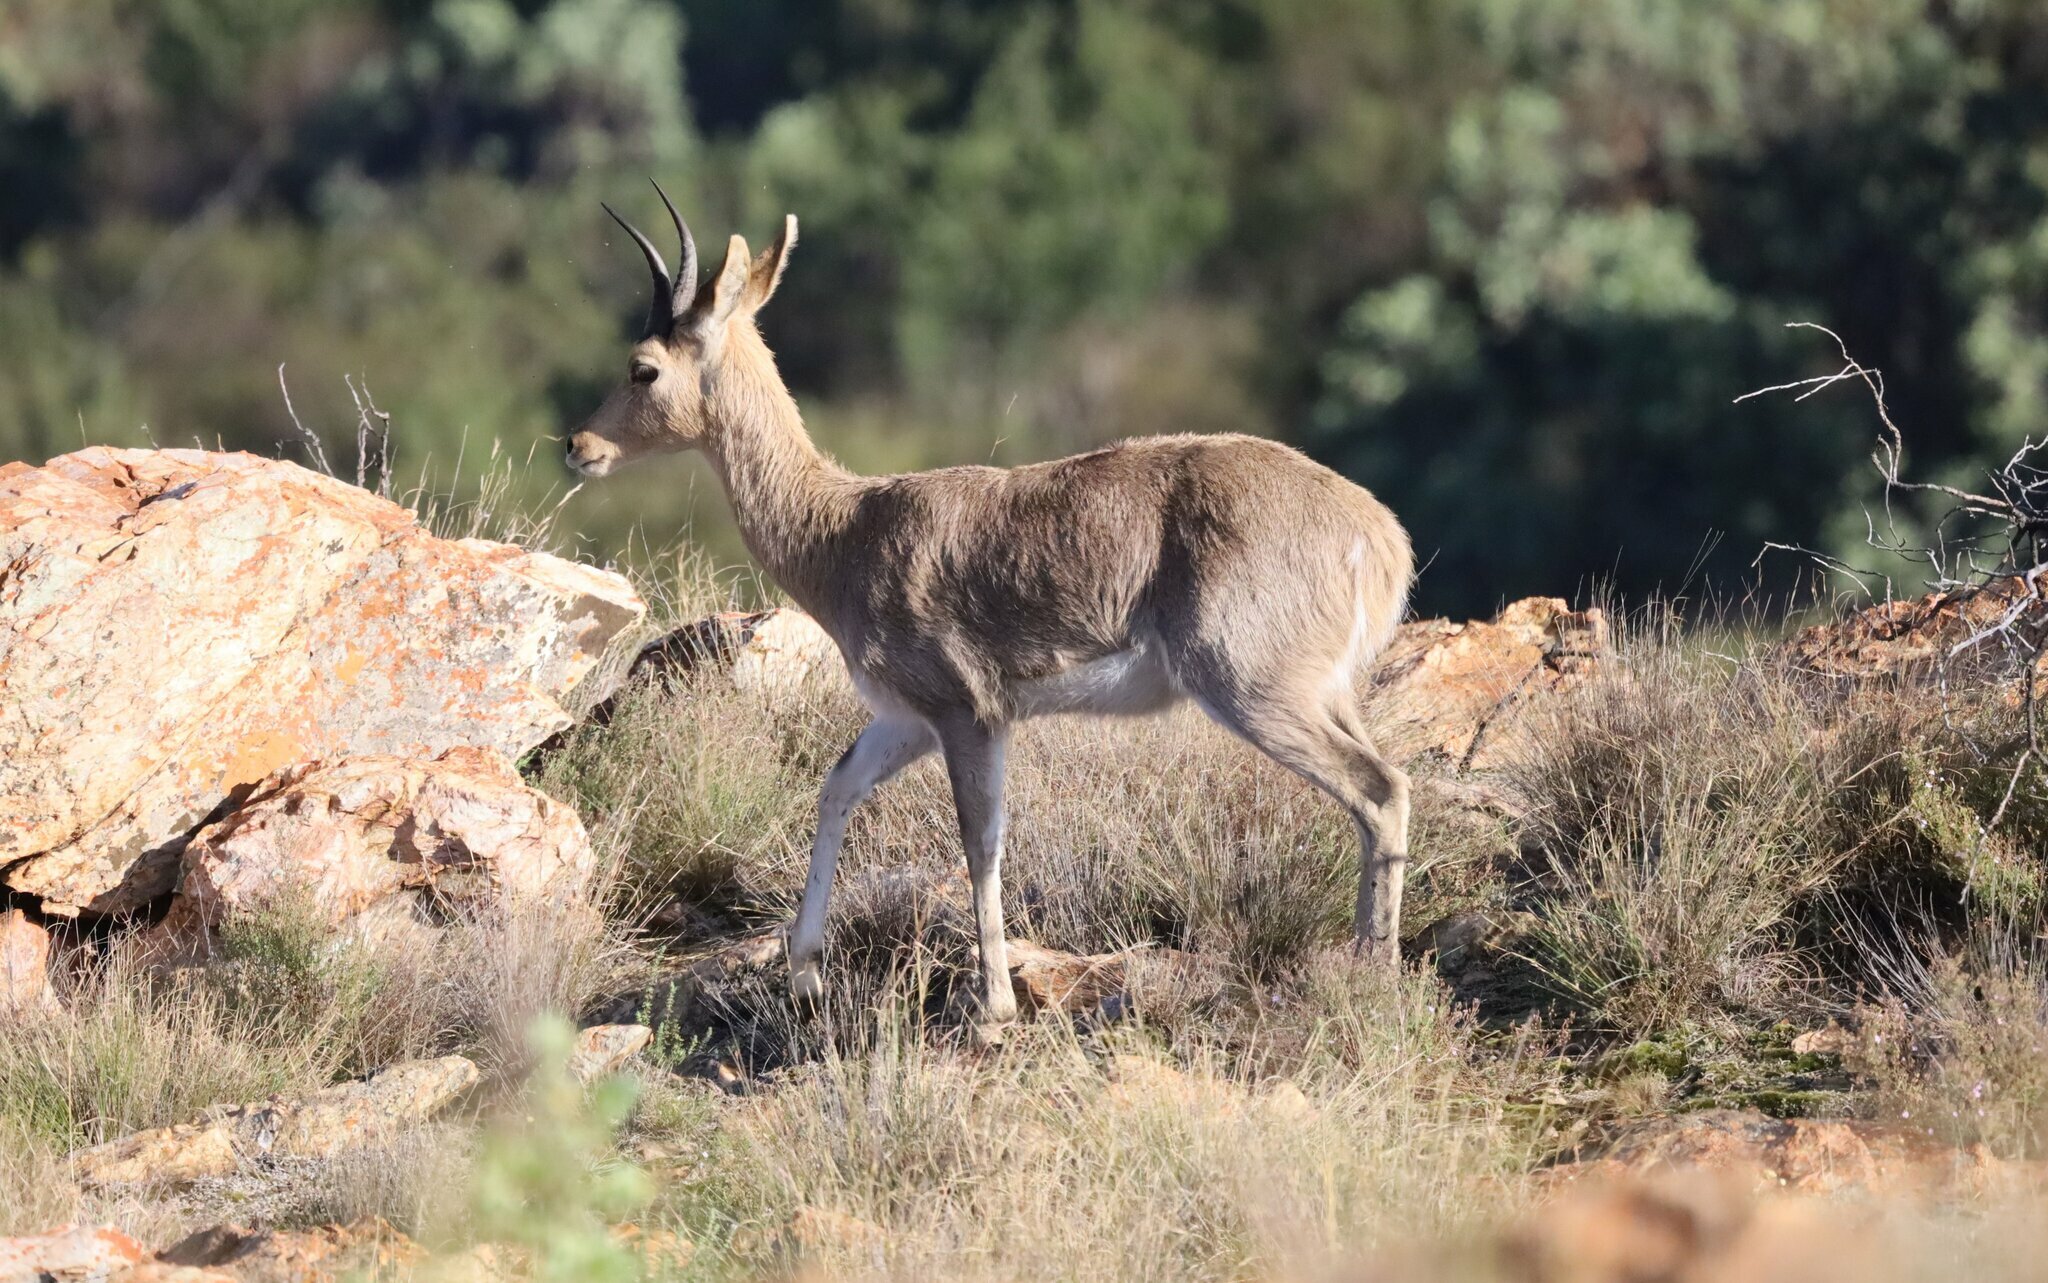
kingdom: Animalia
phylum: Chordata
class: Mammalia
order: Artiodactyla
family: Bovidae
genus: Redunca
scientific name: Redunca fulvorufula
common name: Mountain reedbuck
